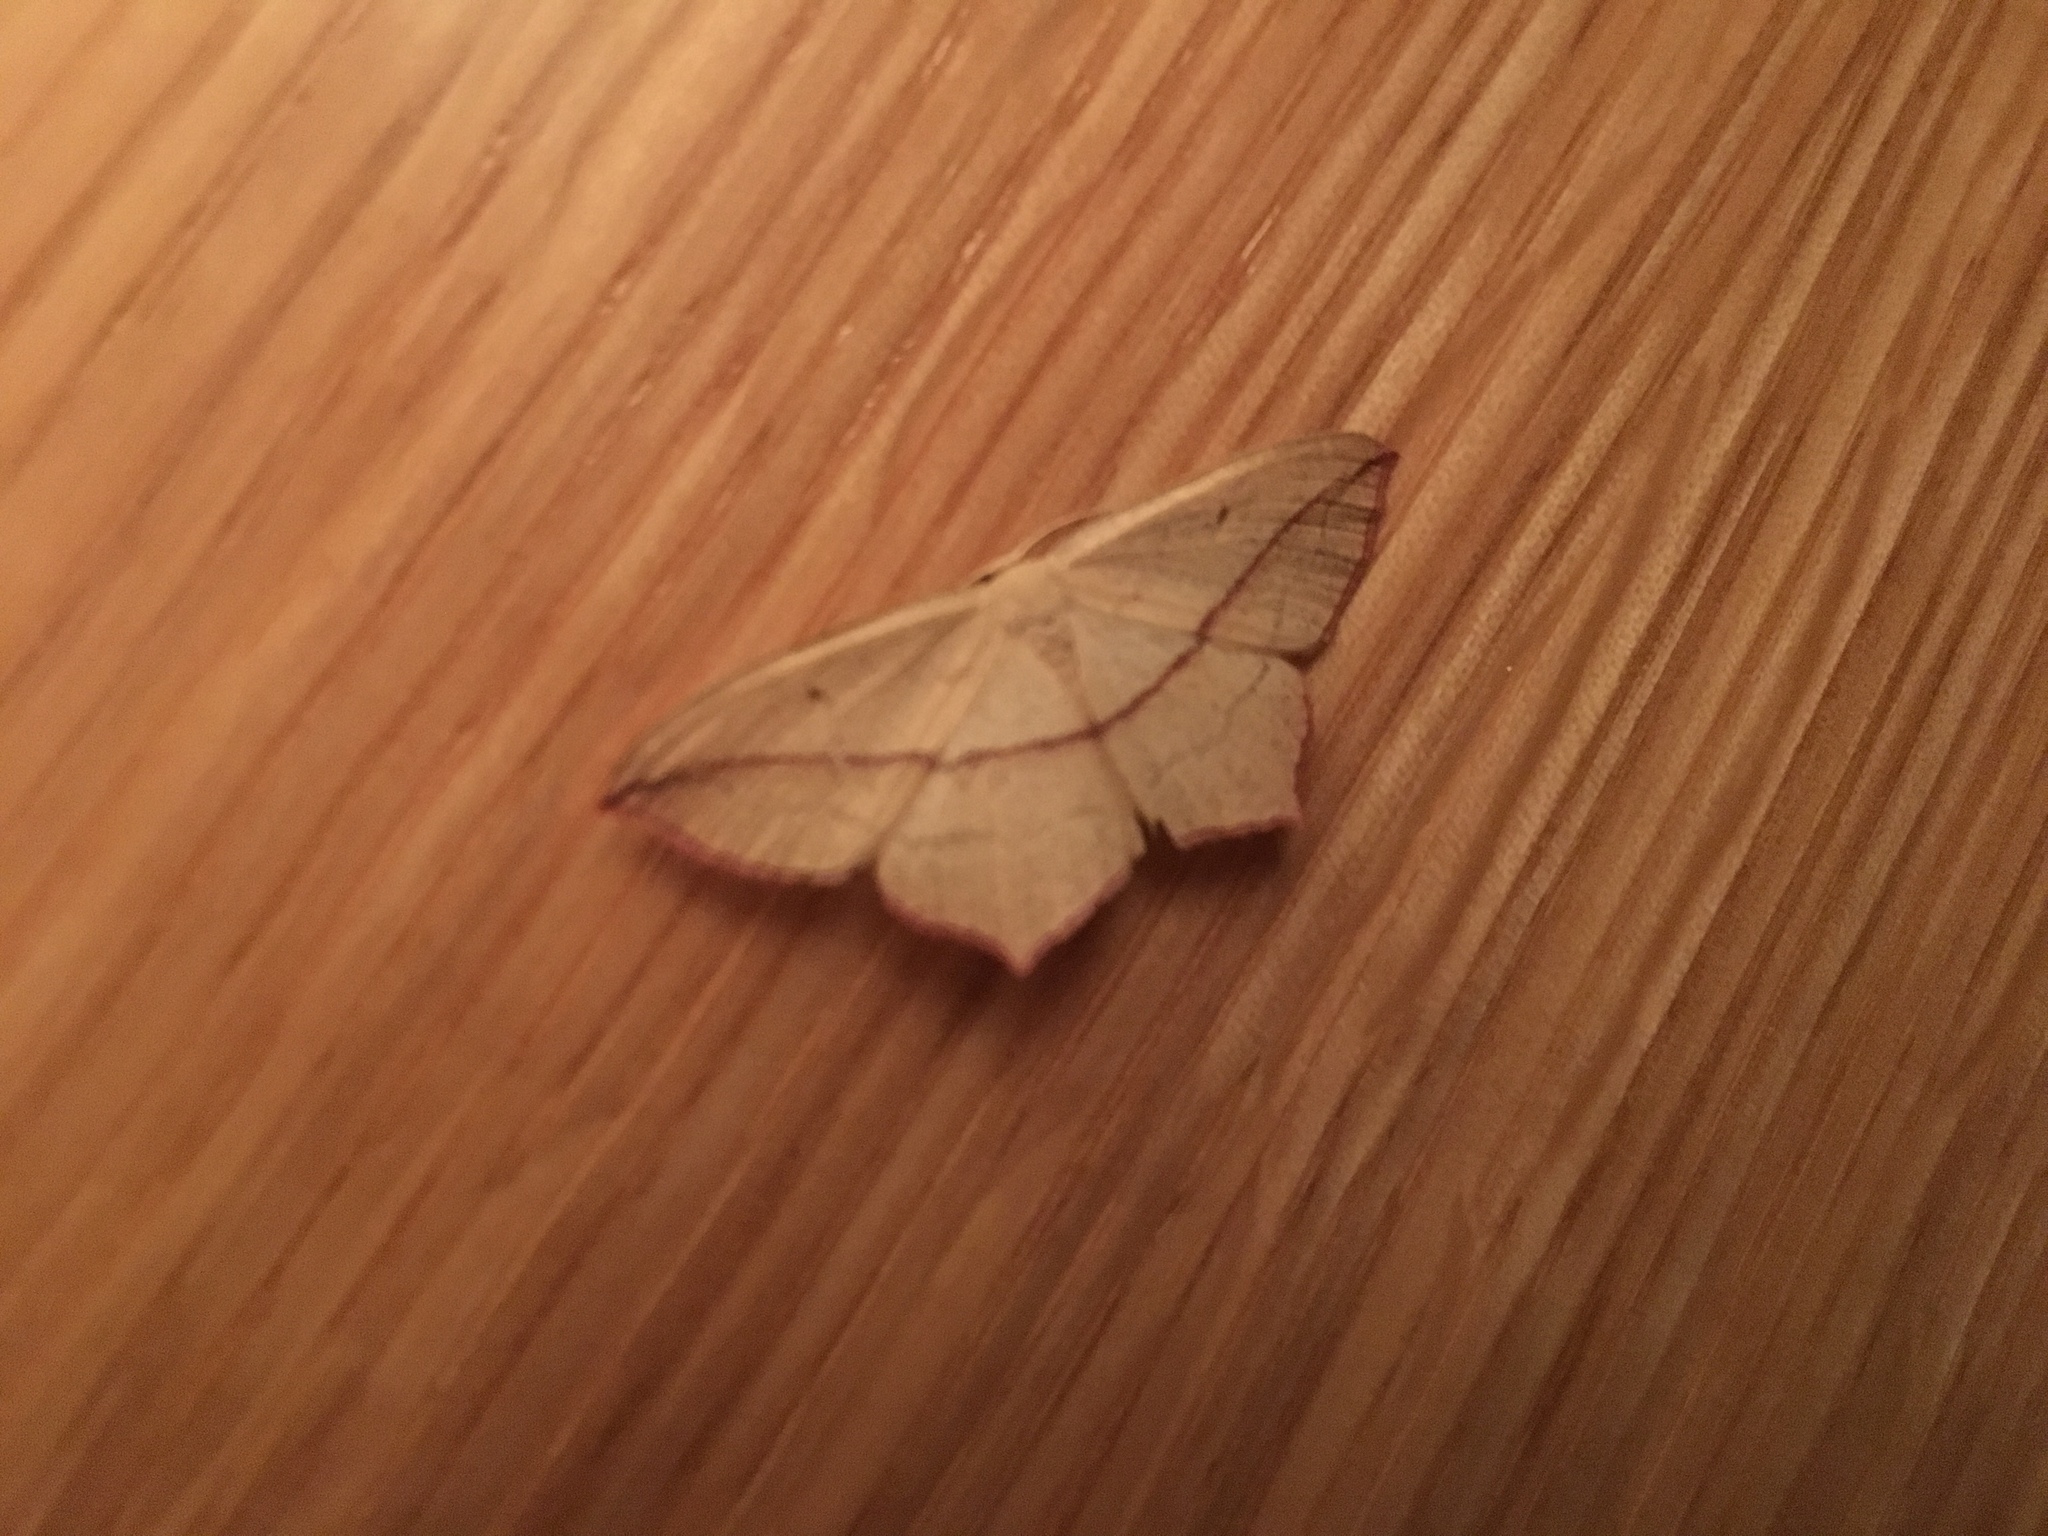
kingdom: Animalia
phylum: Arthropoda
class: Insecta
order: Lepidoptera
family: Geometridae
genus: Timandra
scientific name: Timandra comae
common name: Blood-vein
